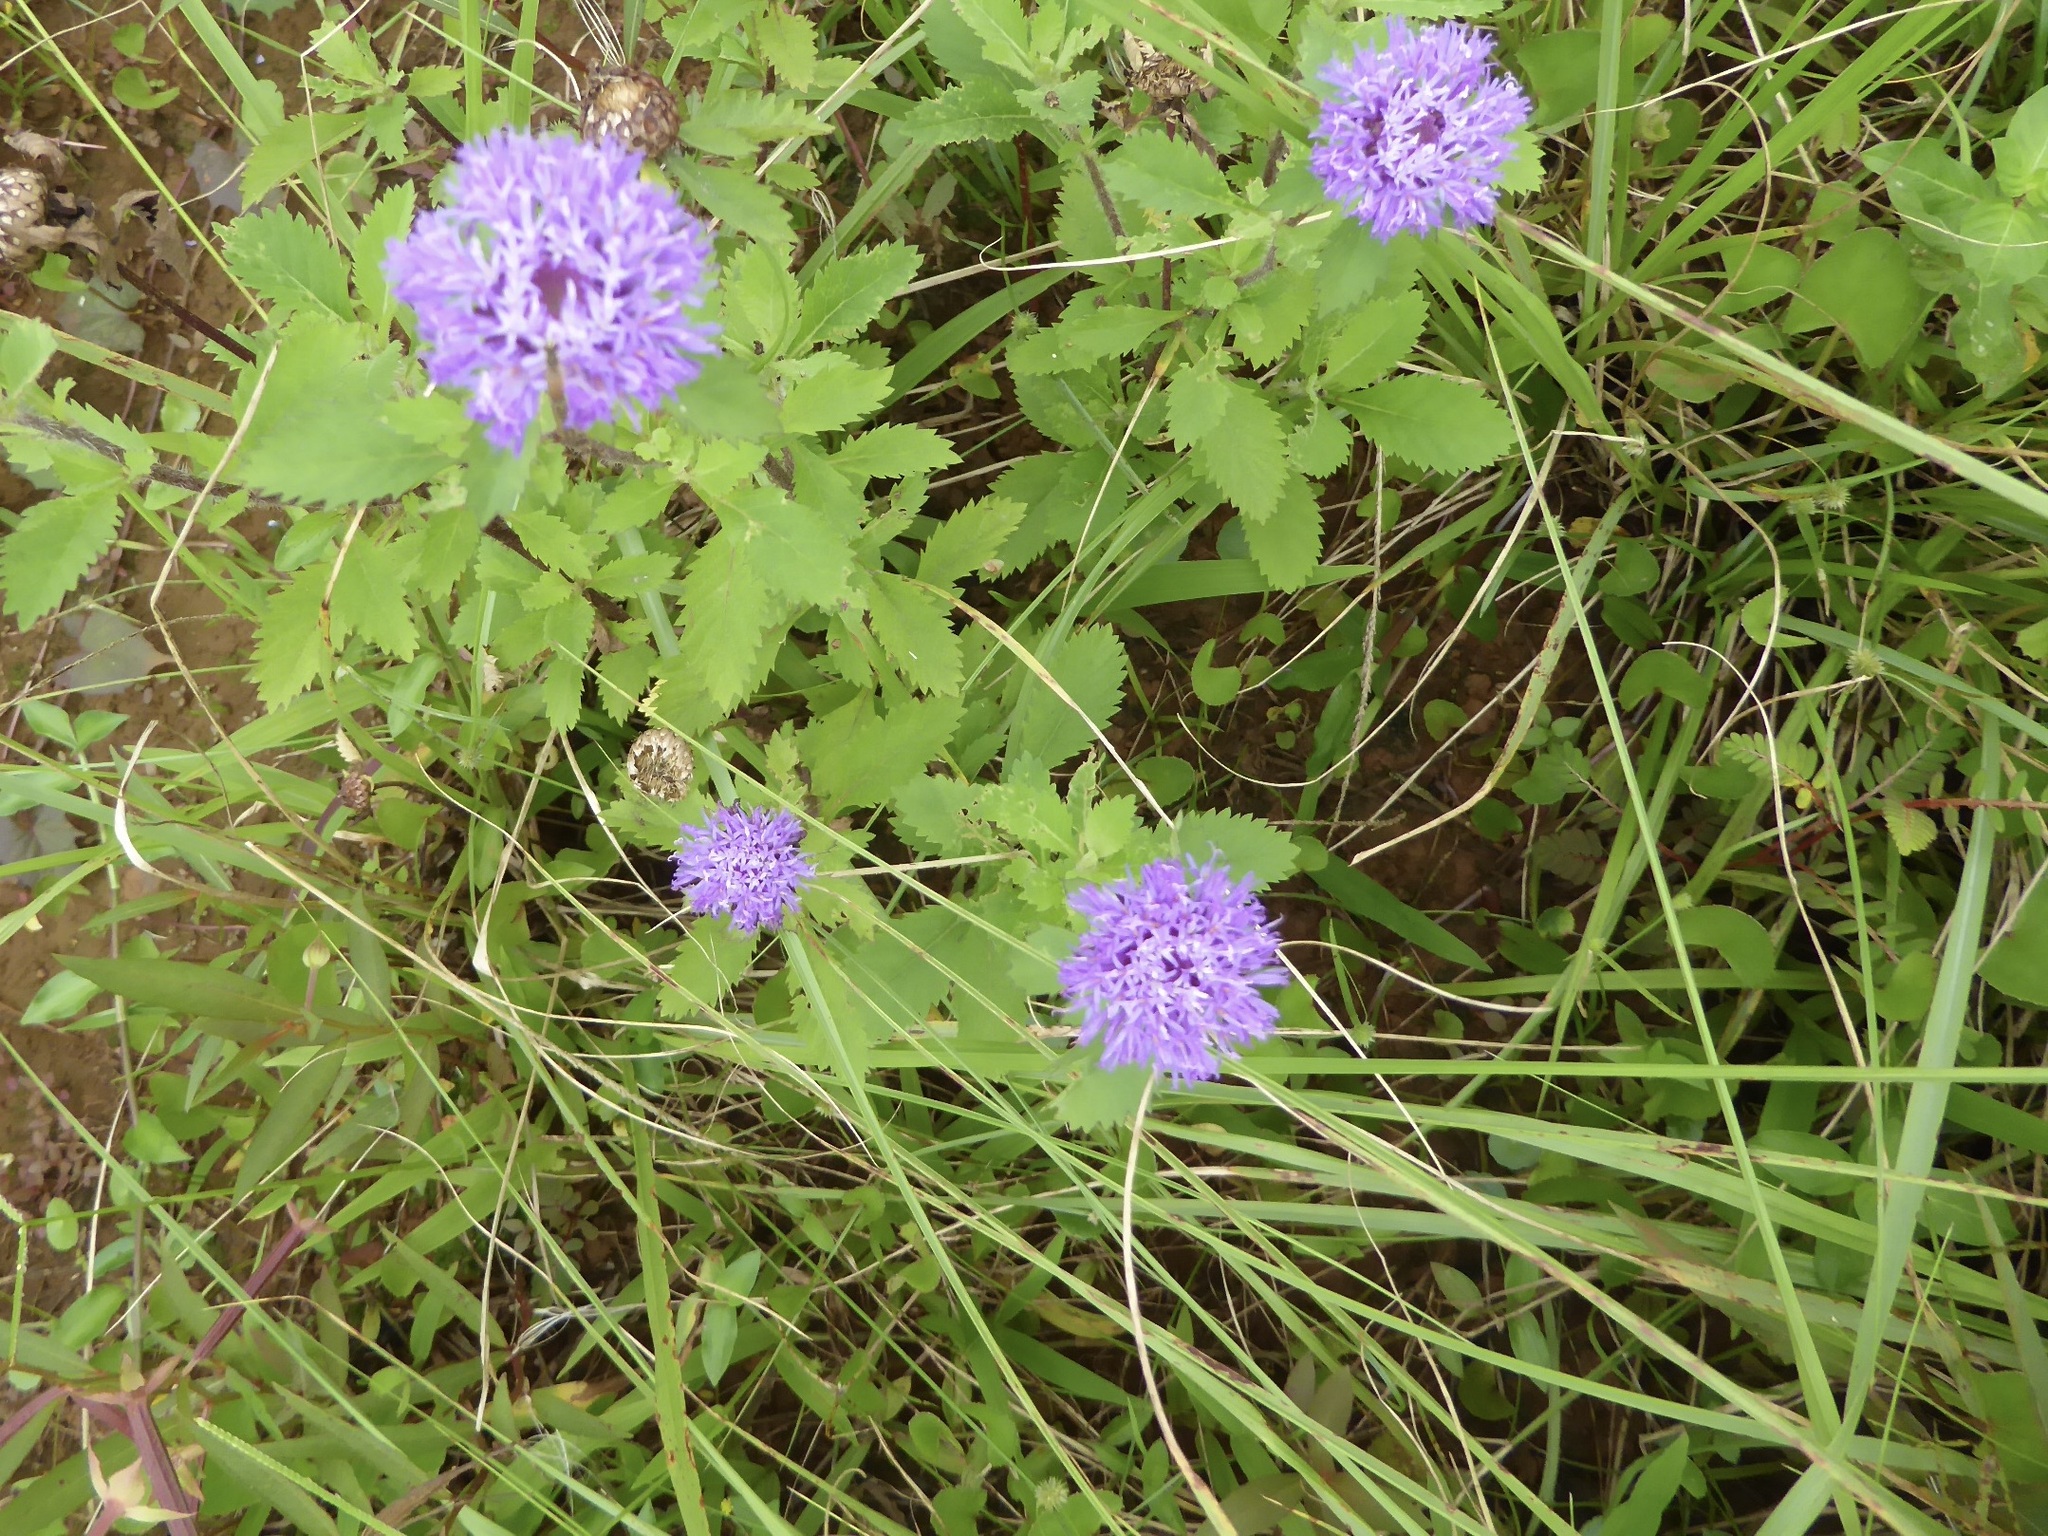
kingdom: Plantae
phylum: Tracheophyta
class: Magnoliopsida
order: Asterales
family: Asteraceae
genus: Centratherum
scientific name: Centratherum punctatum
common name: Larkdaisy
